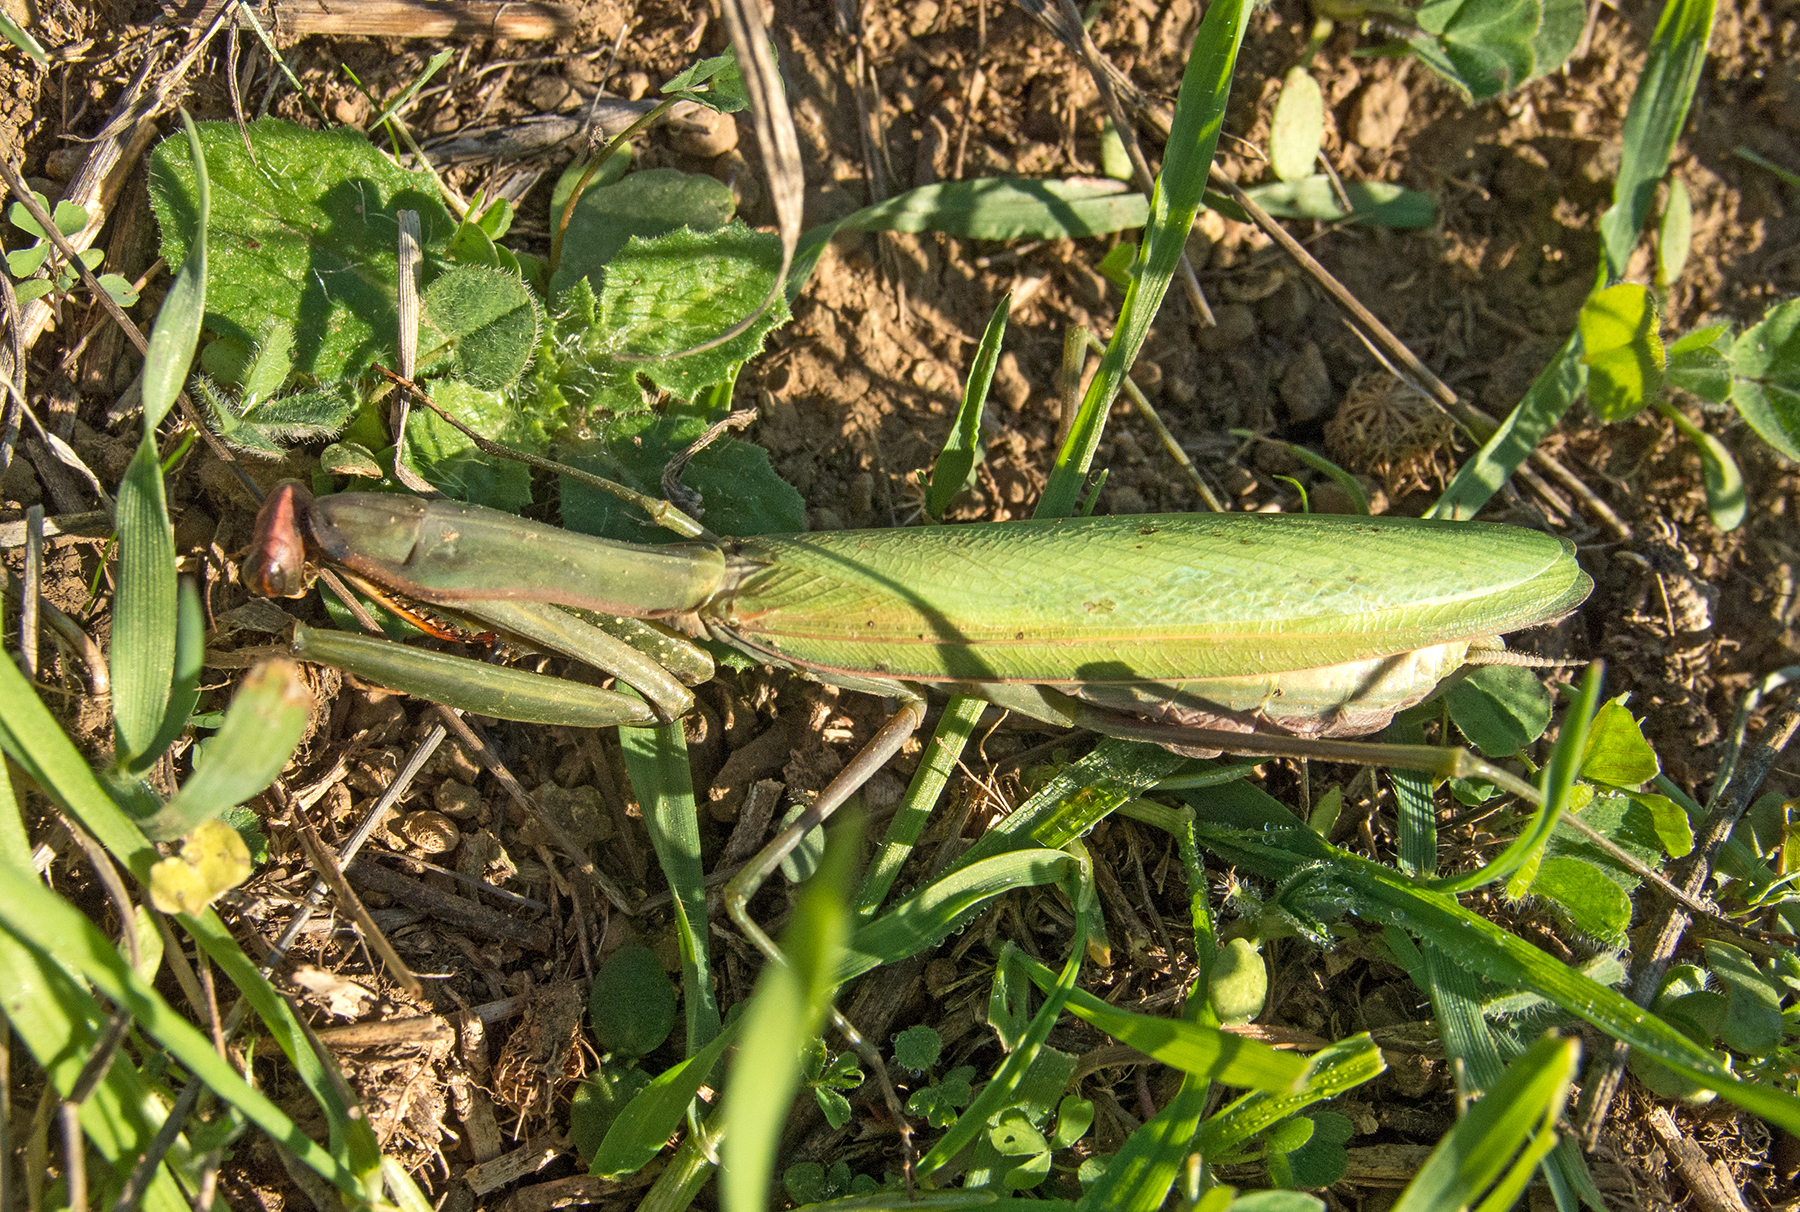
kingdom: Animalia
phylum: Arthropoda
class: Insecta
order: Mantodea
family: Mantidae
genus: Mantis
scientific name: Mantis religiosa
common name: Praying mantis
